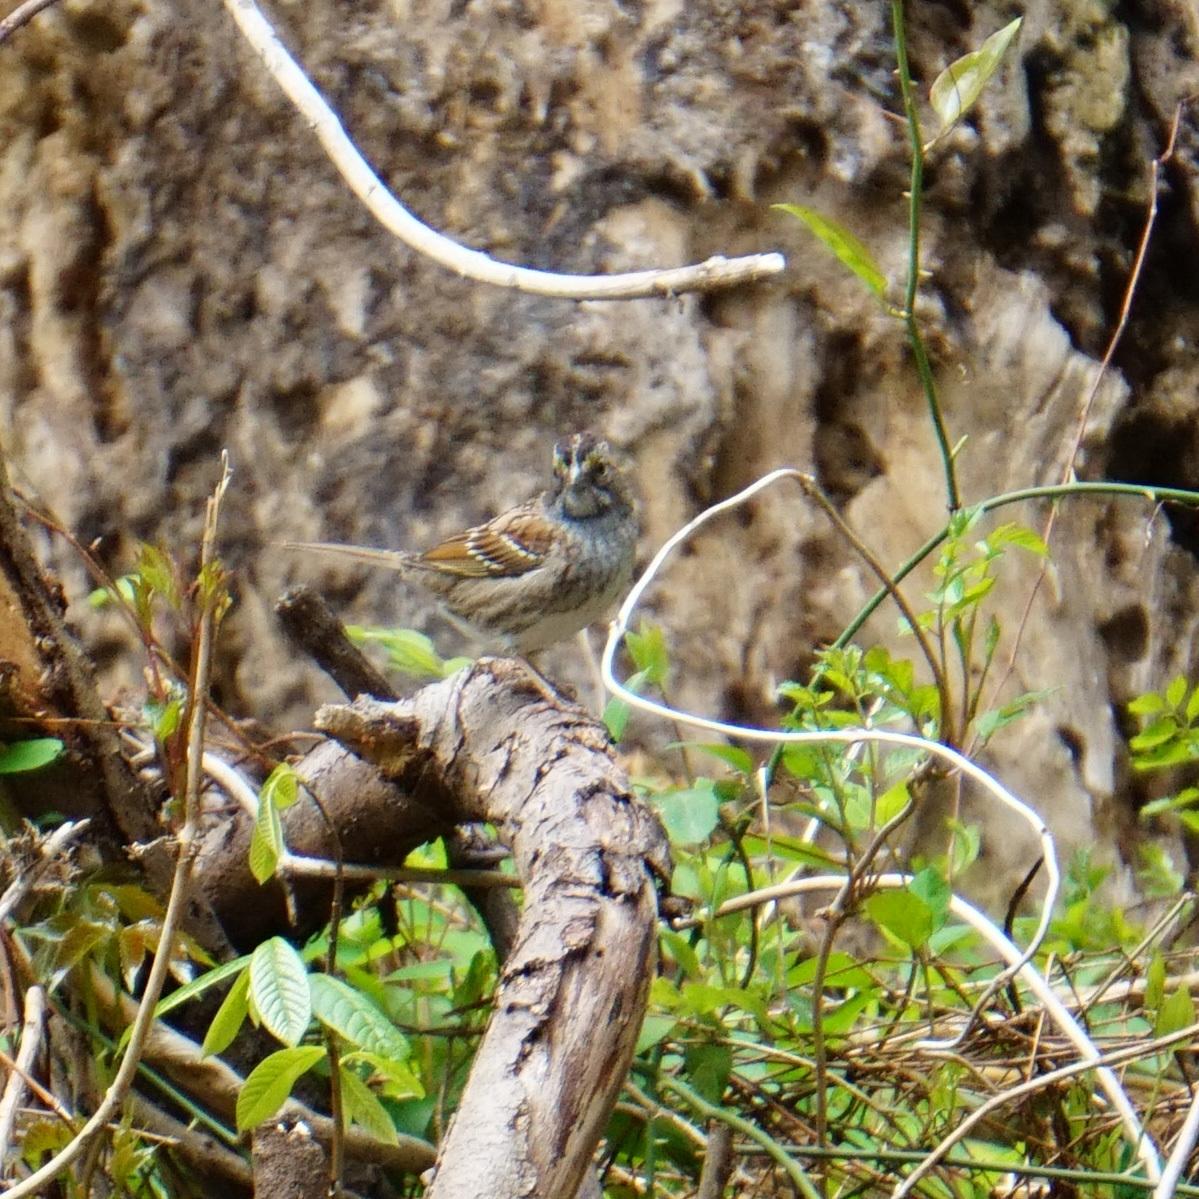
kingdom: Animalia
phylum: Chordata
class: Aves
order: Passeriformes
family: Passerellidae
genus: Zonotrichia
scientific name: Zonotrichia albicollis
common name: White-throated sparrow
